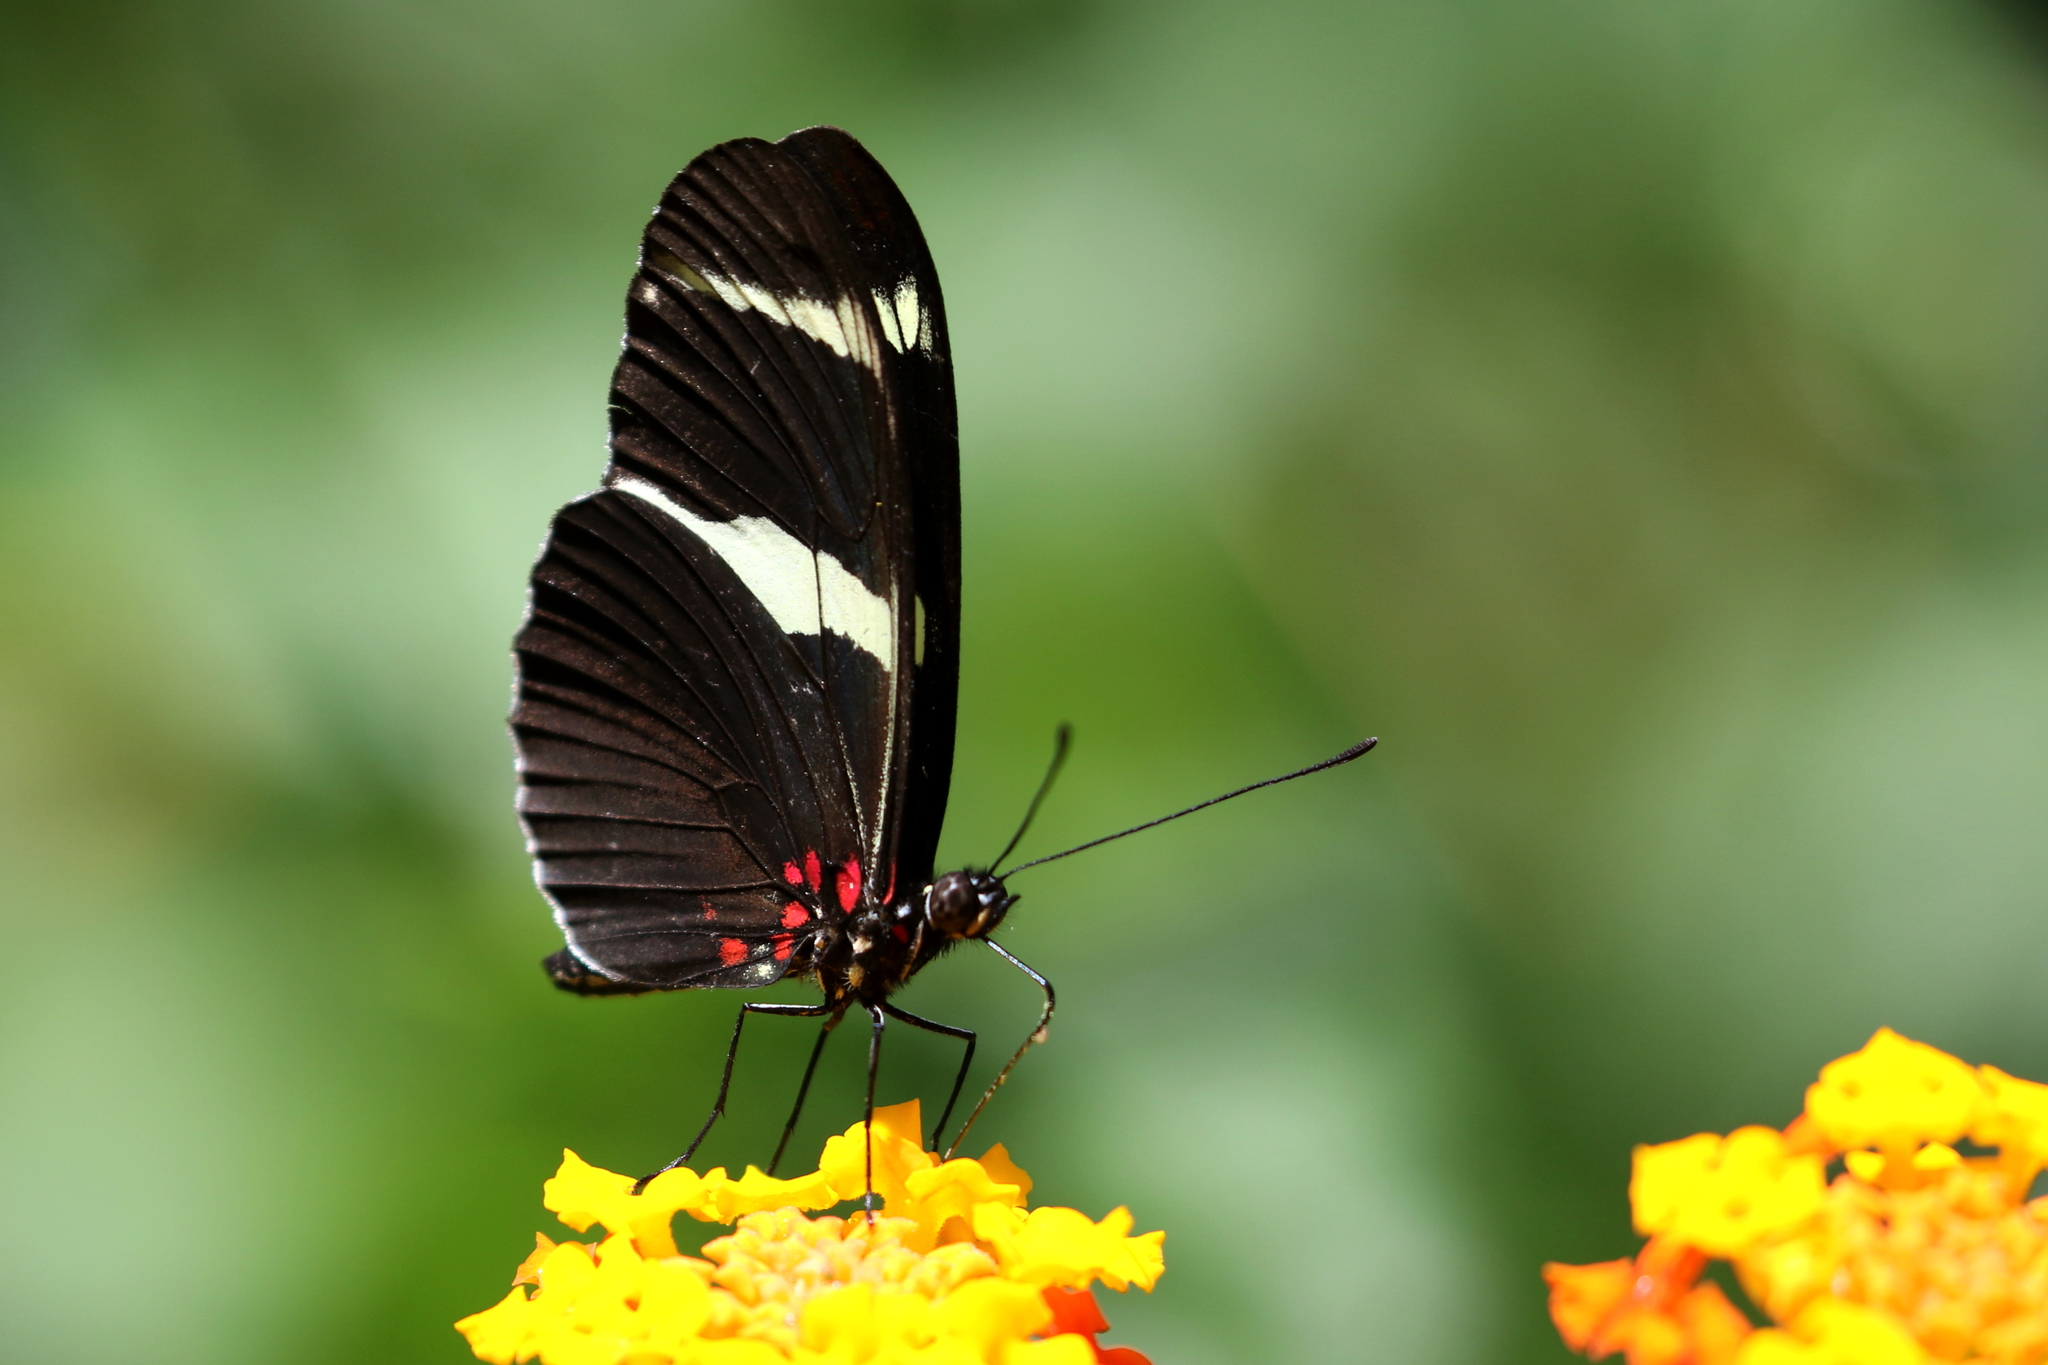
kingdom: Animalia
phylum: Arthropoda
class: Insecta
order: Lepidoptera
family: Nymphalidae
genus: Heliconius
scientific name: Heliconius sara
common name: Sara longwing
